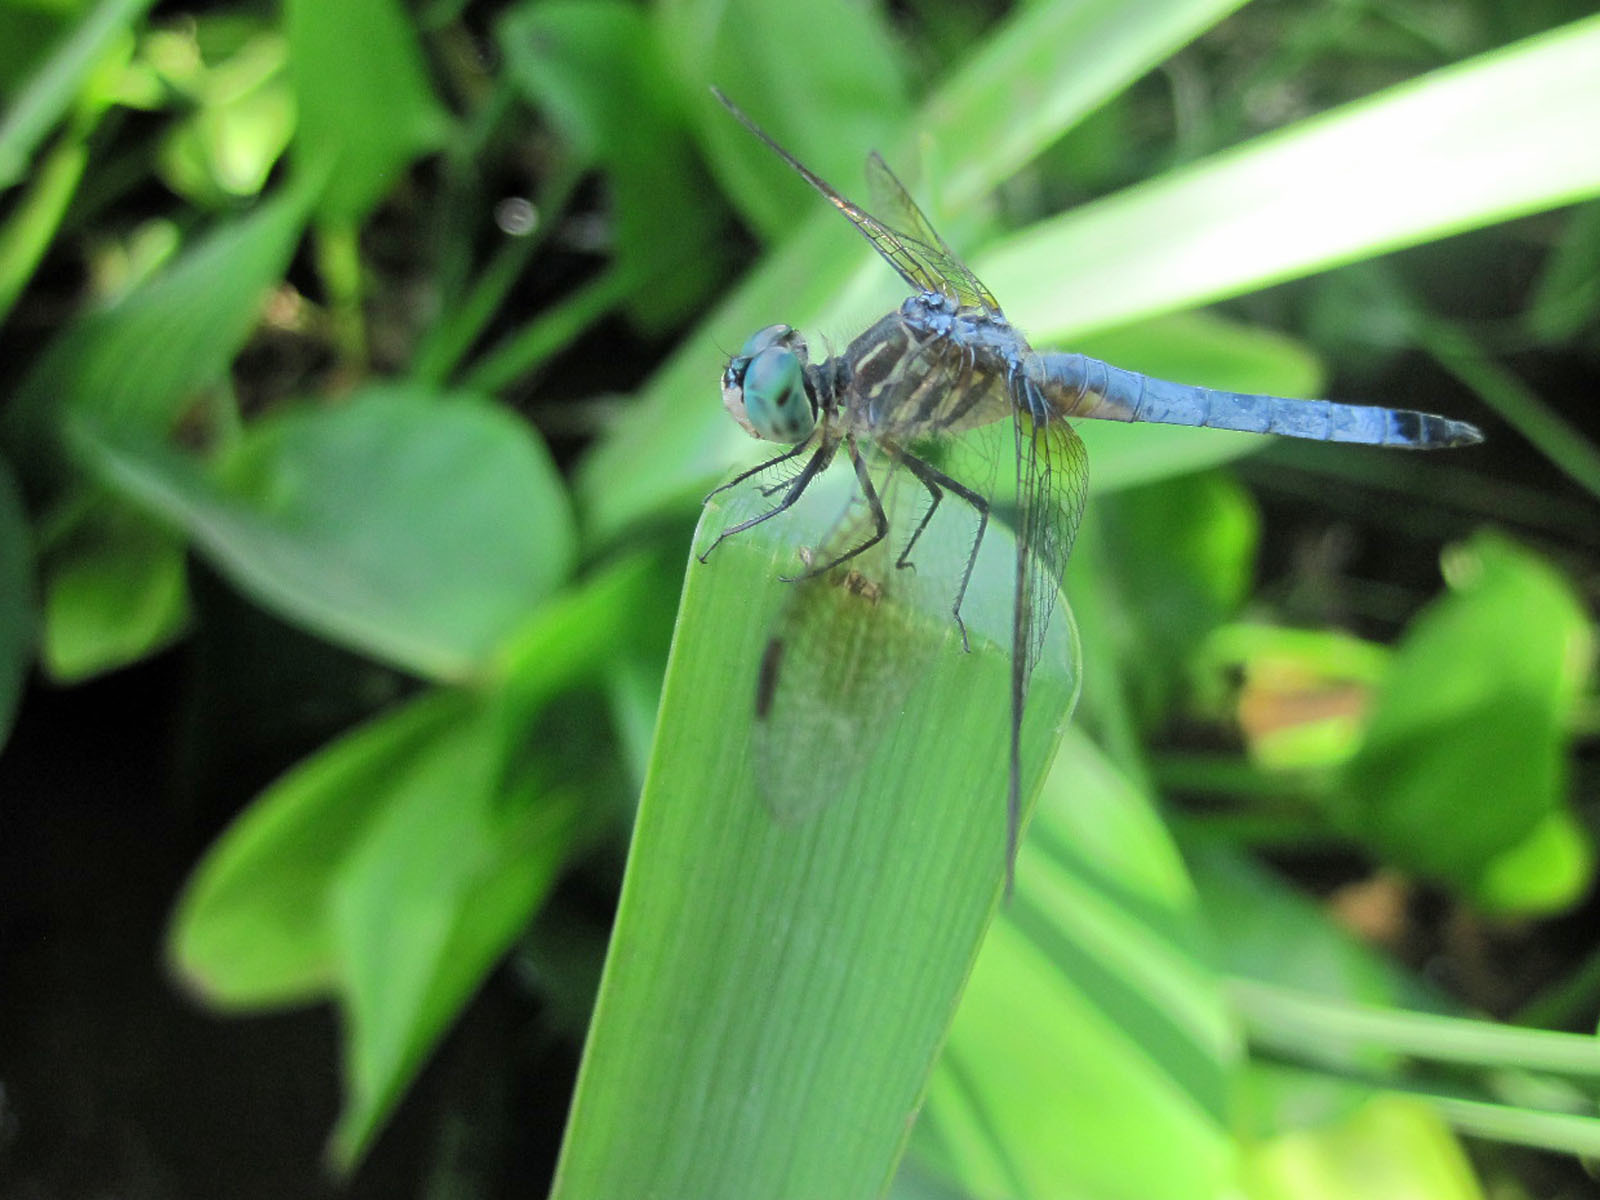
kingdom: Animalia
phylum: Arthropoda
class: Insecta
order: Odonata
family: Libellulidae
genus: Pachydiplax
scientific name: Pachydiplax longipennis
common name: Blue dasher
